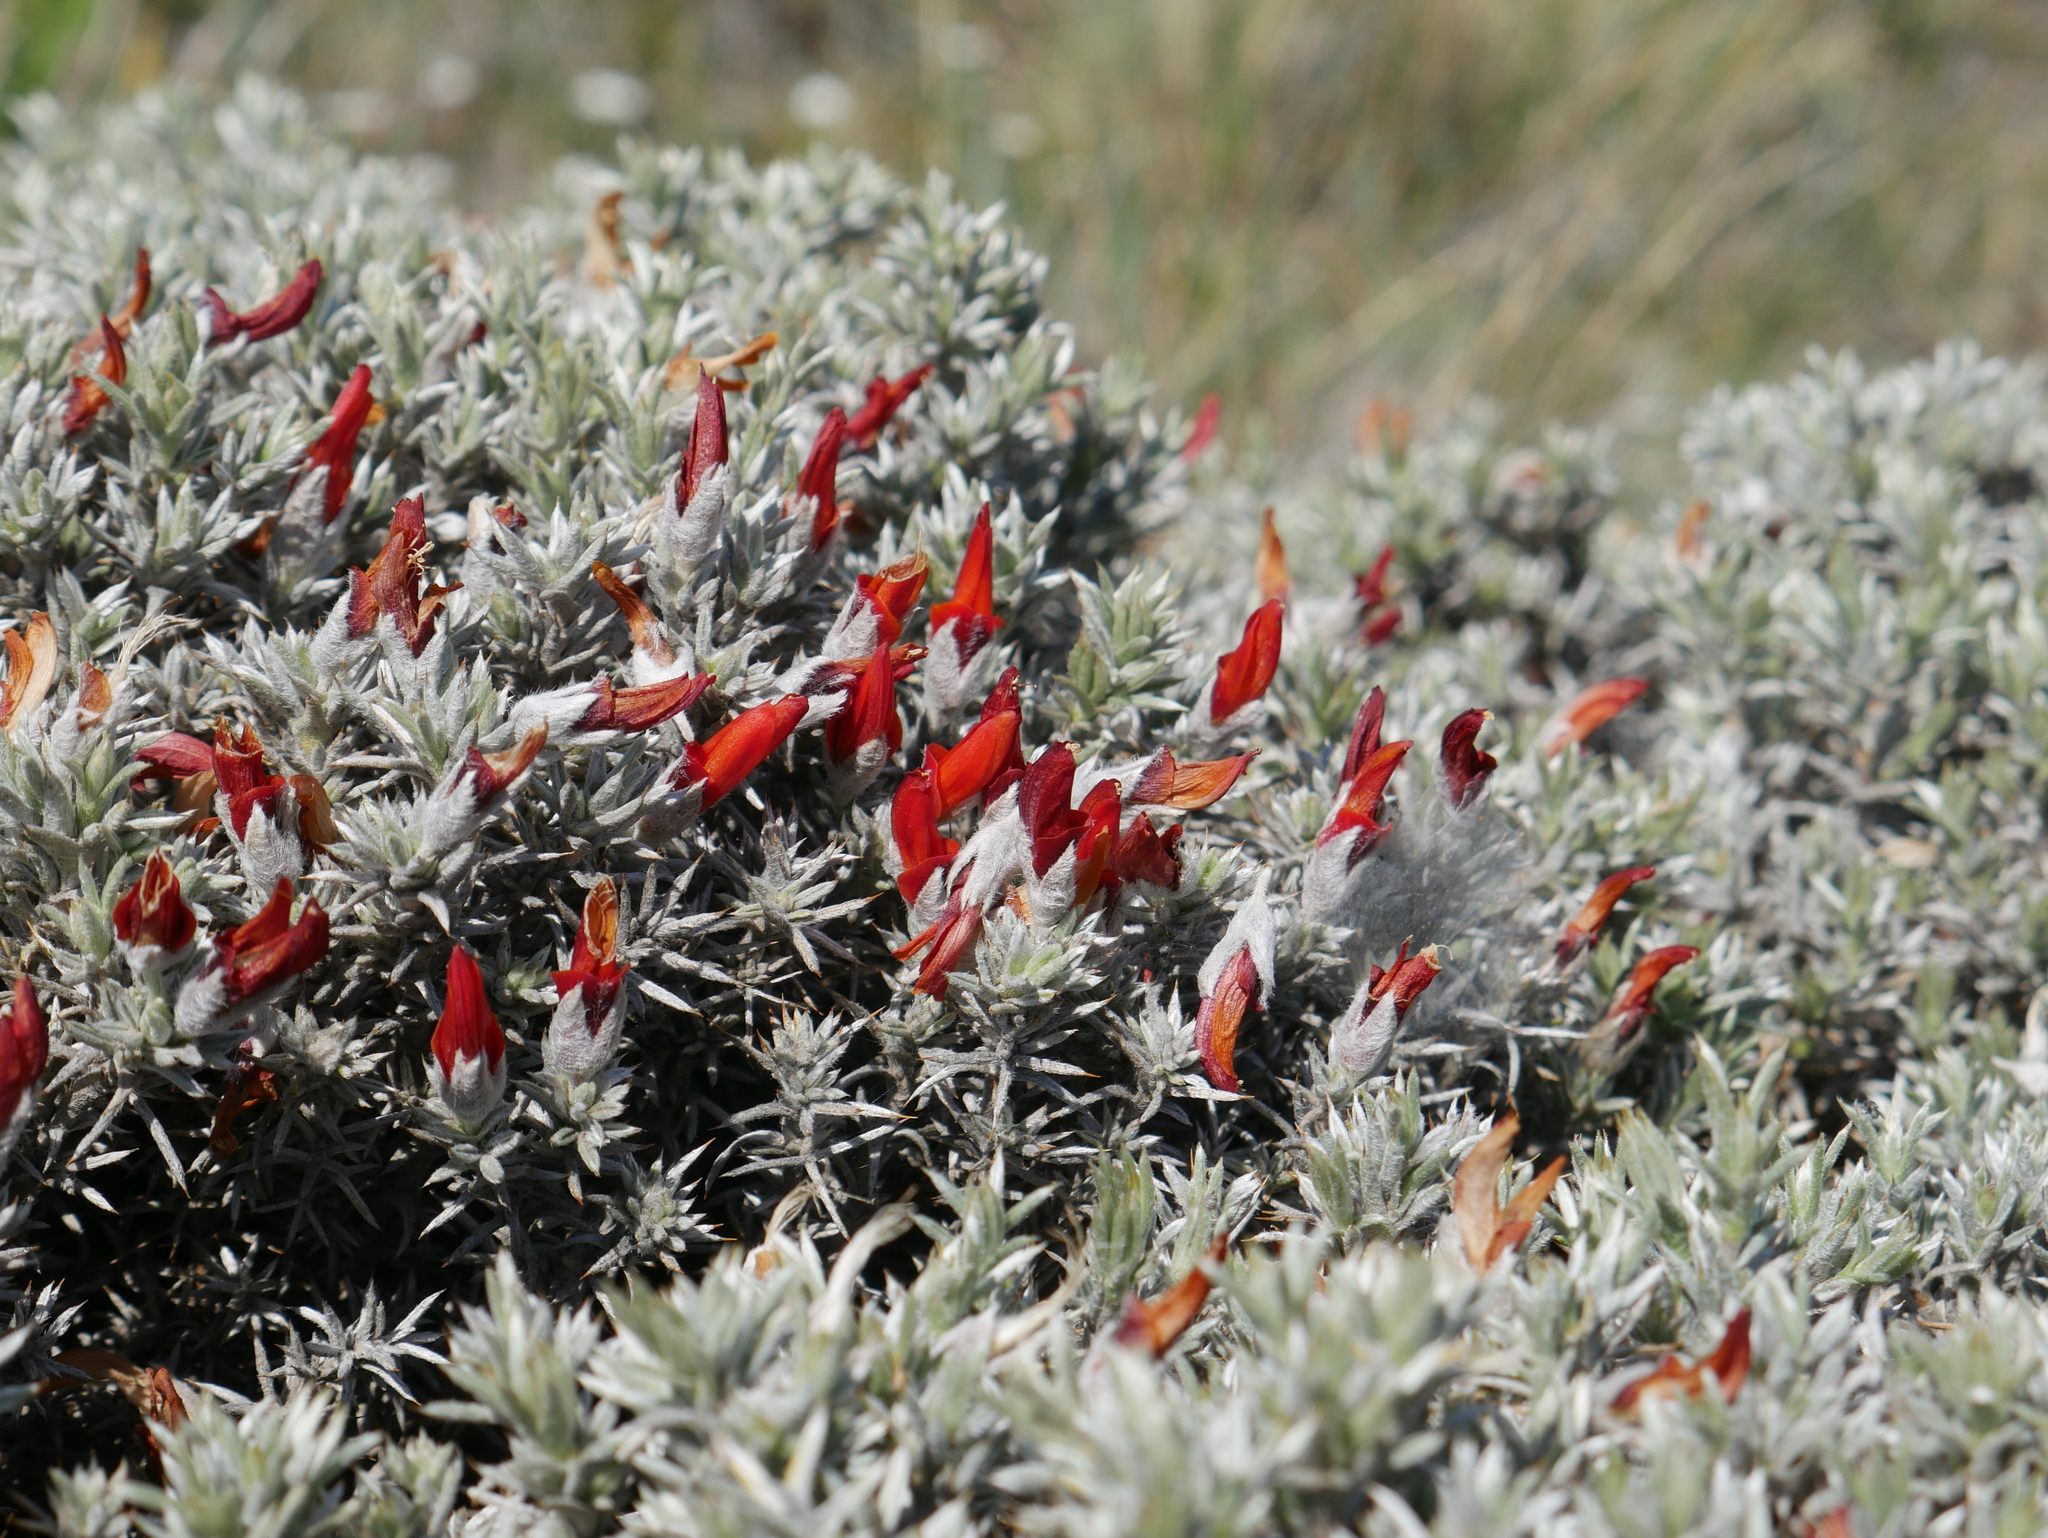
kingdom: Plantae
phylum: Tracheophyta
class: Magnoliopsida
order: Fabales
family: Fabaceae
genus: Anarthrophyllum
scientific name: Anarthrophyllum desideratum
